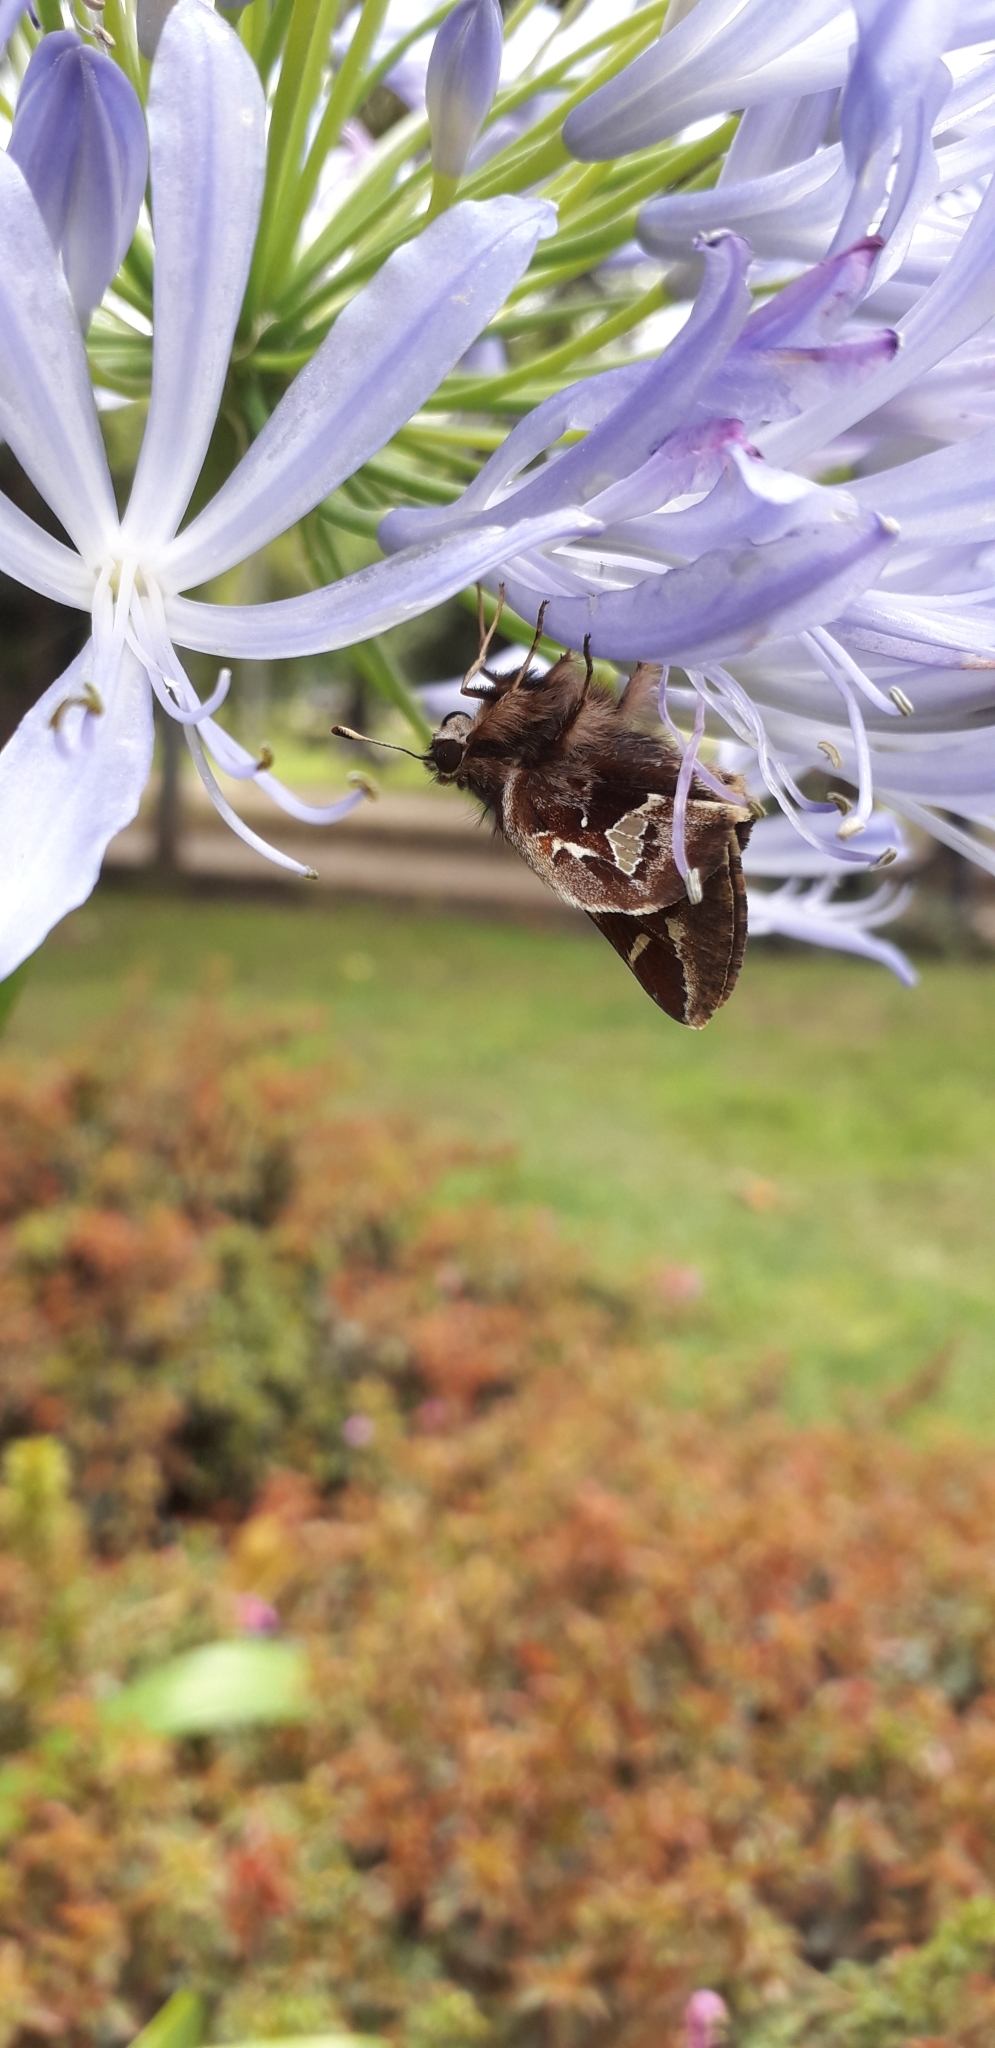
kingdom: Animalia
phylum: Arthropoda
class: Insecta
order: Lepidoptera
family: Hesperiidae
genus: Thespieus
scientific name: Thespieus othna
